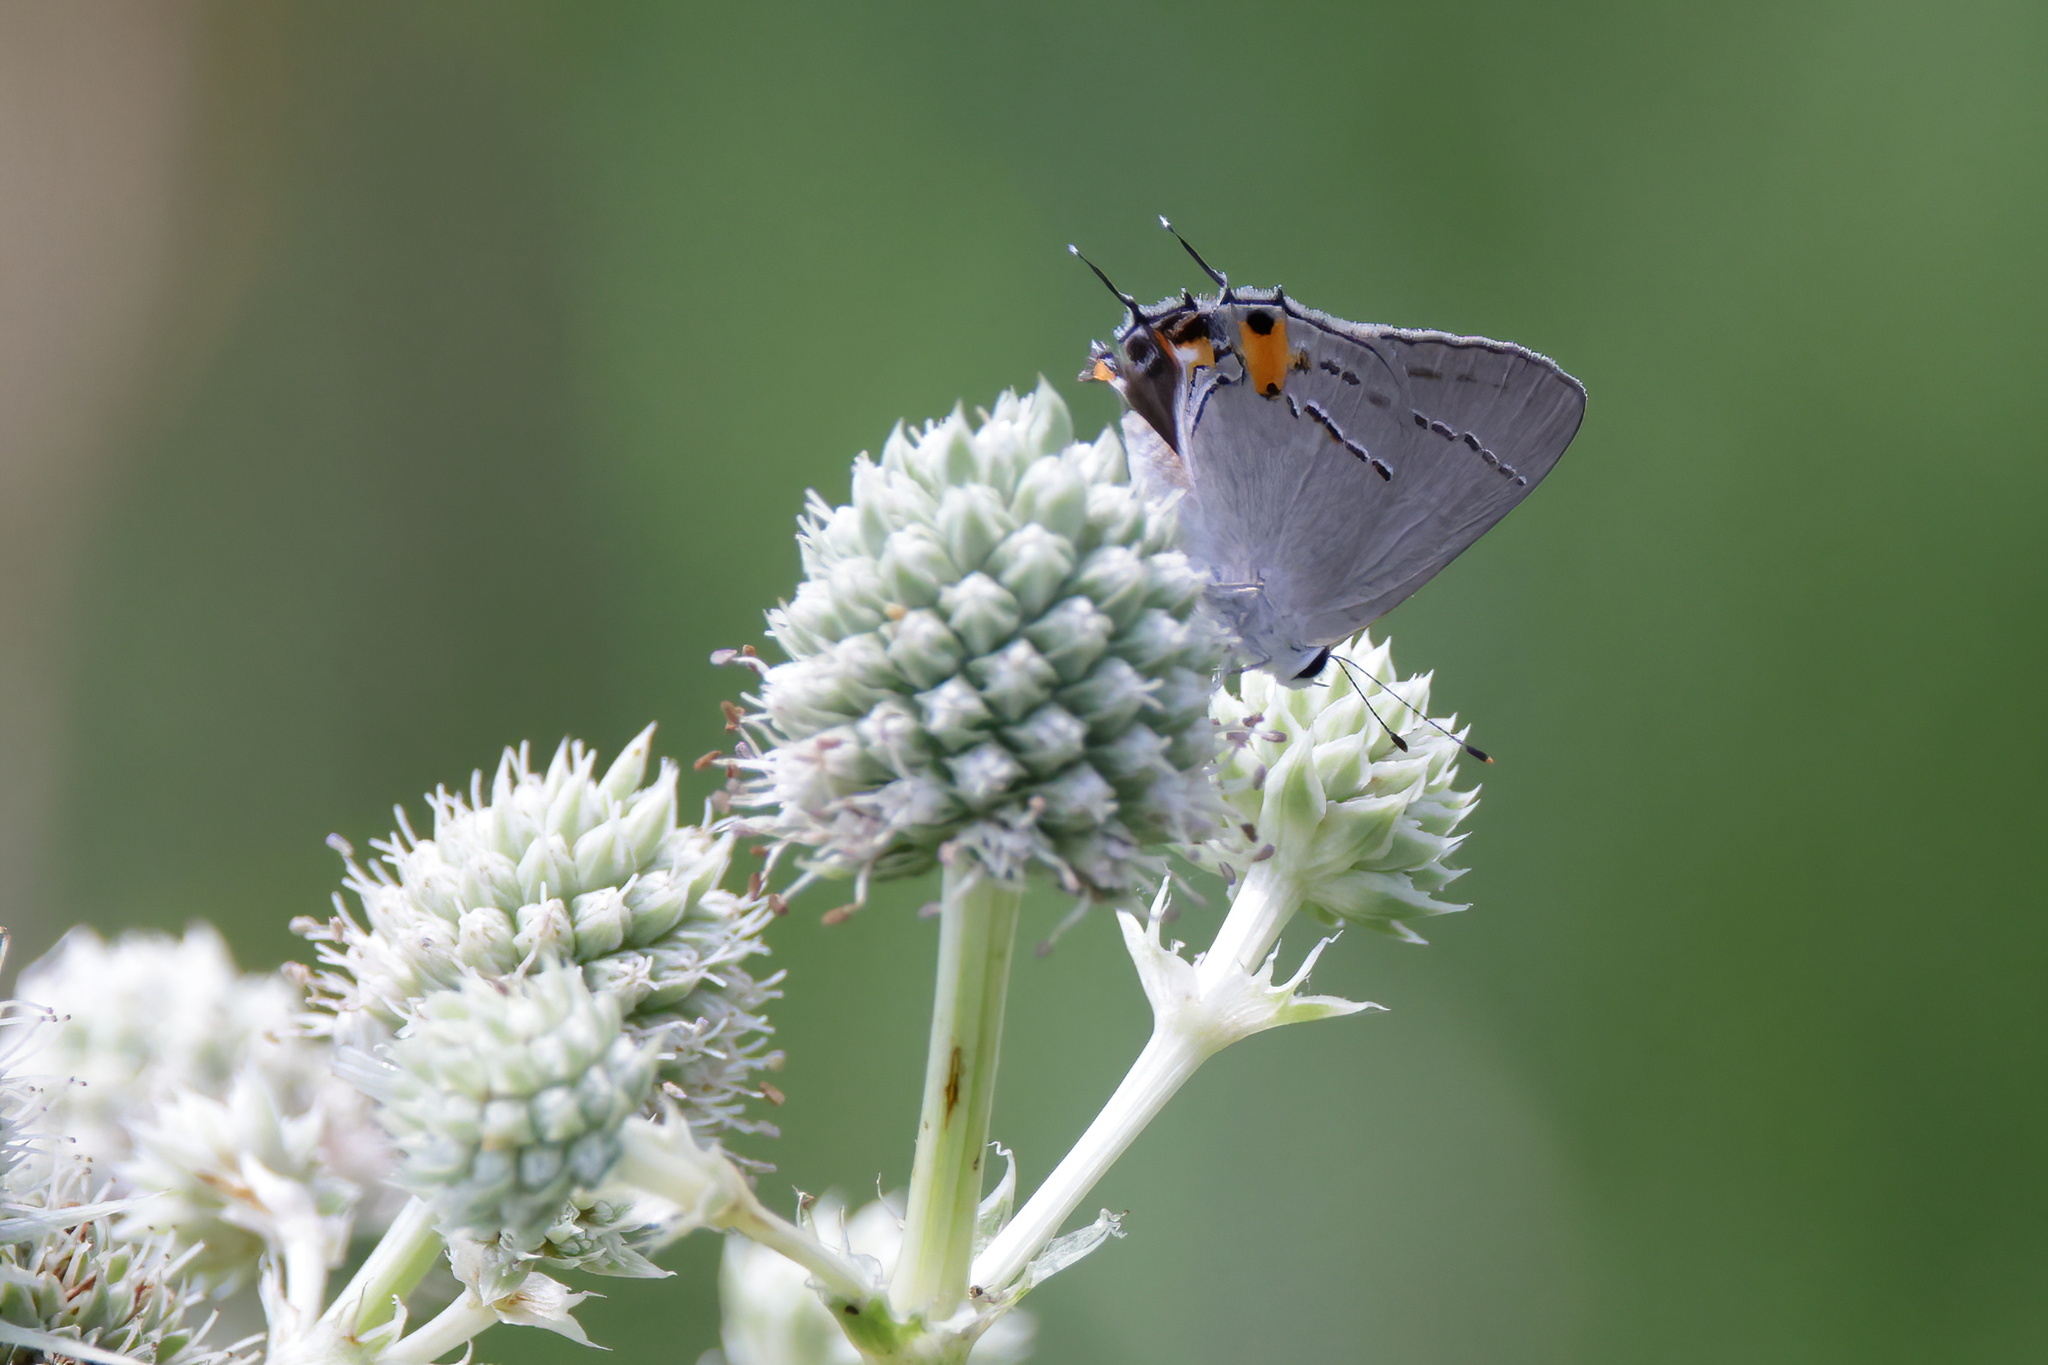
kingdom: Animalia
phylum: Arthropoda
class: Insecta
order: Lepidoptera
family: Lycaenidae
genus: Strymon
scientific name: Strymon melinus
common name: Gray hairstreak
